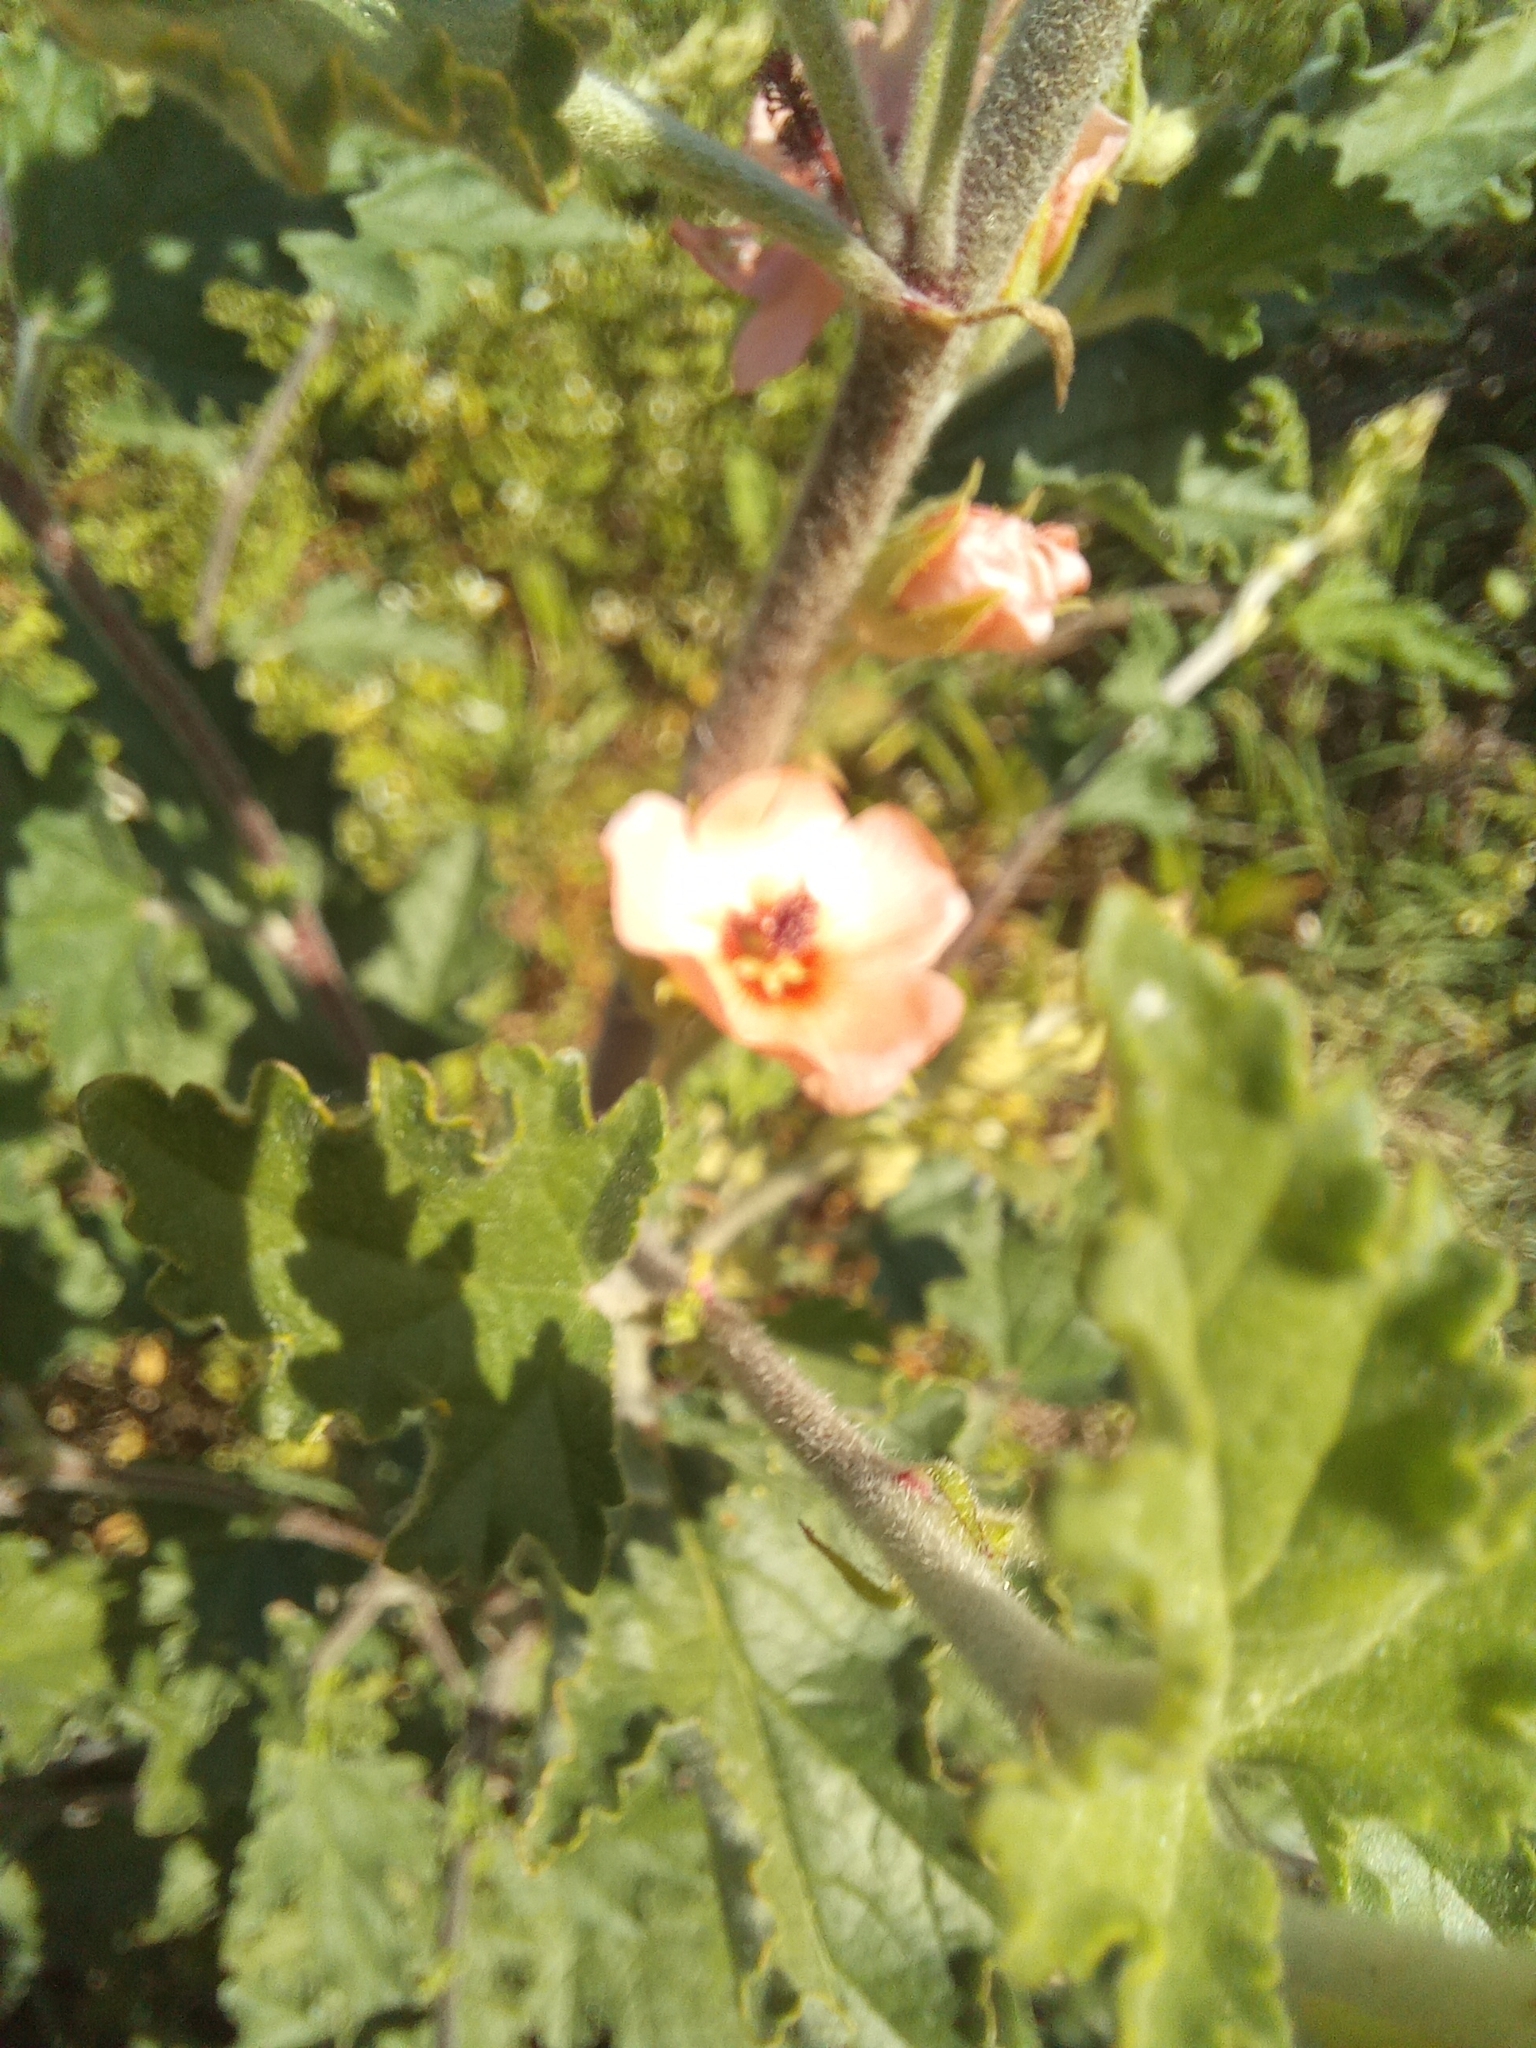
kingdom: Plantae
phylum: Tracheophyta
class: Magnoliopsida
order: Malvales
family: Malvaceae
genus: Sphaeralcea
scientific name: Sphaeralcea bonariensis
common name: Latin globemallow
